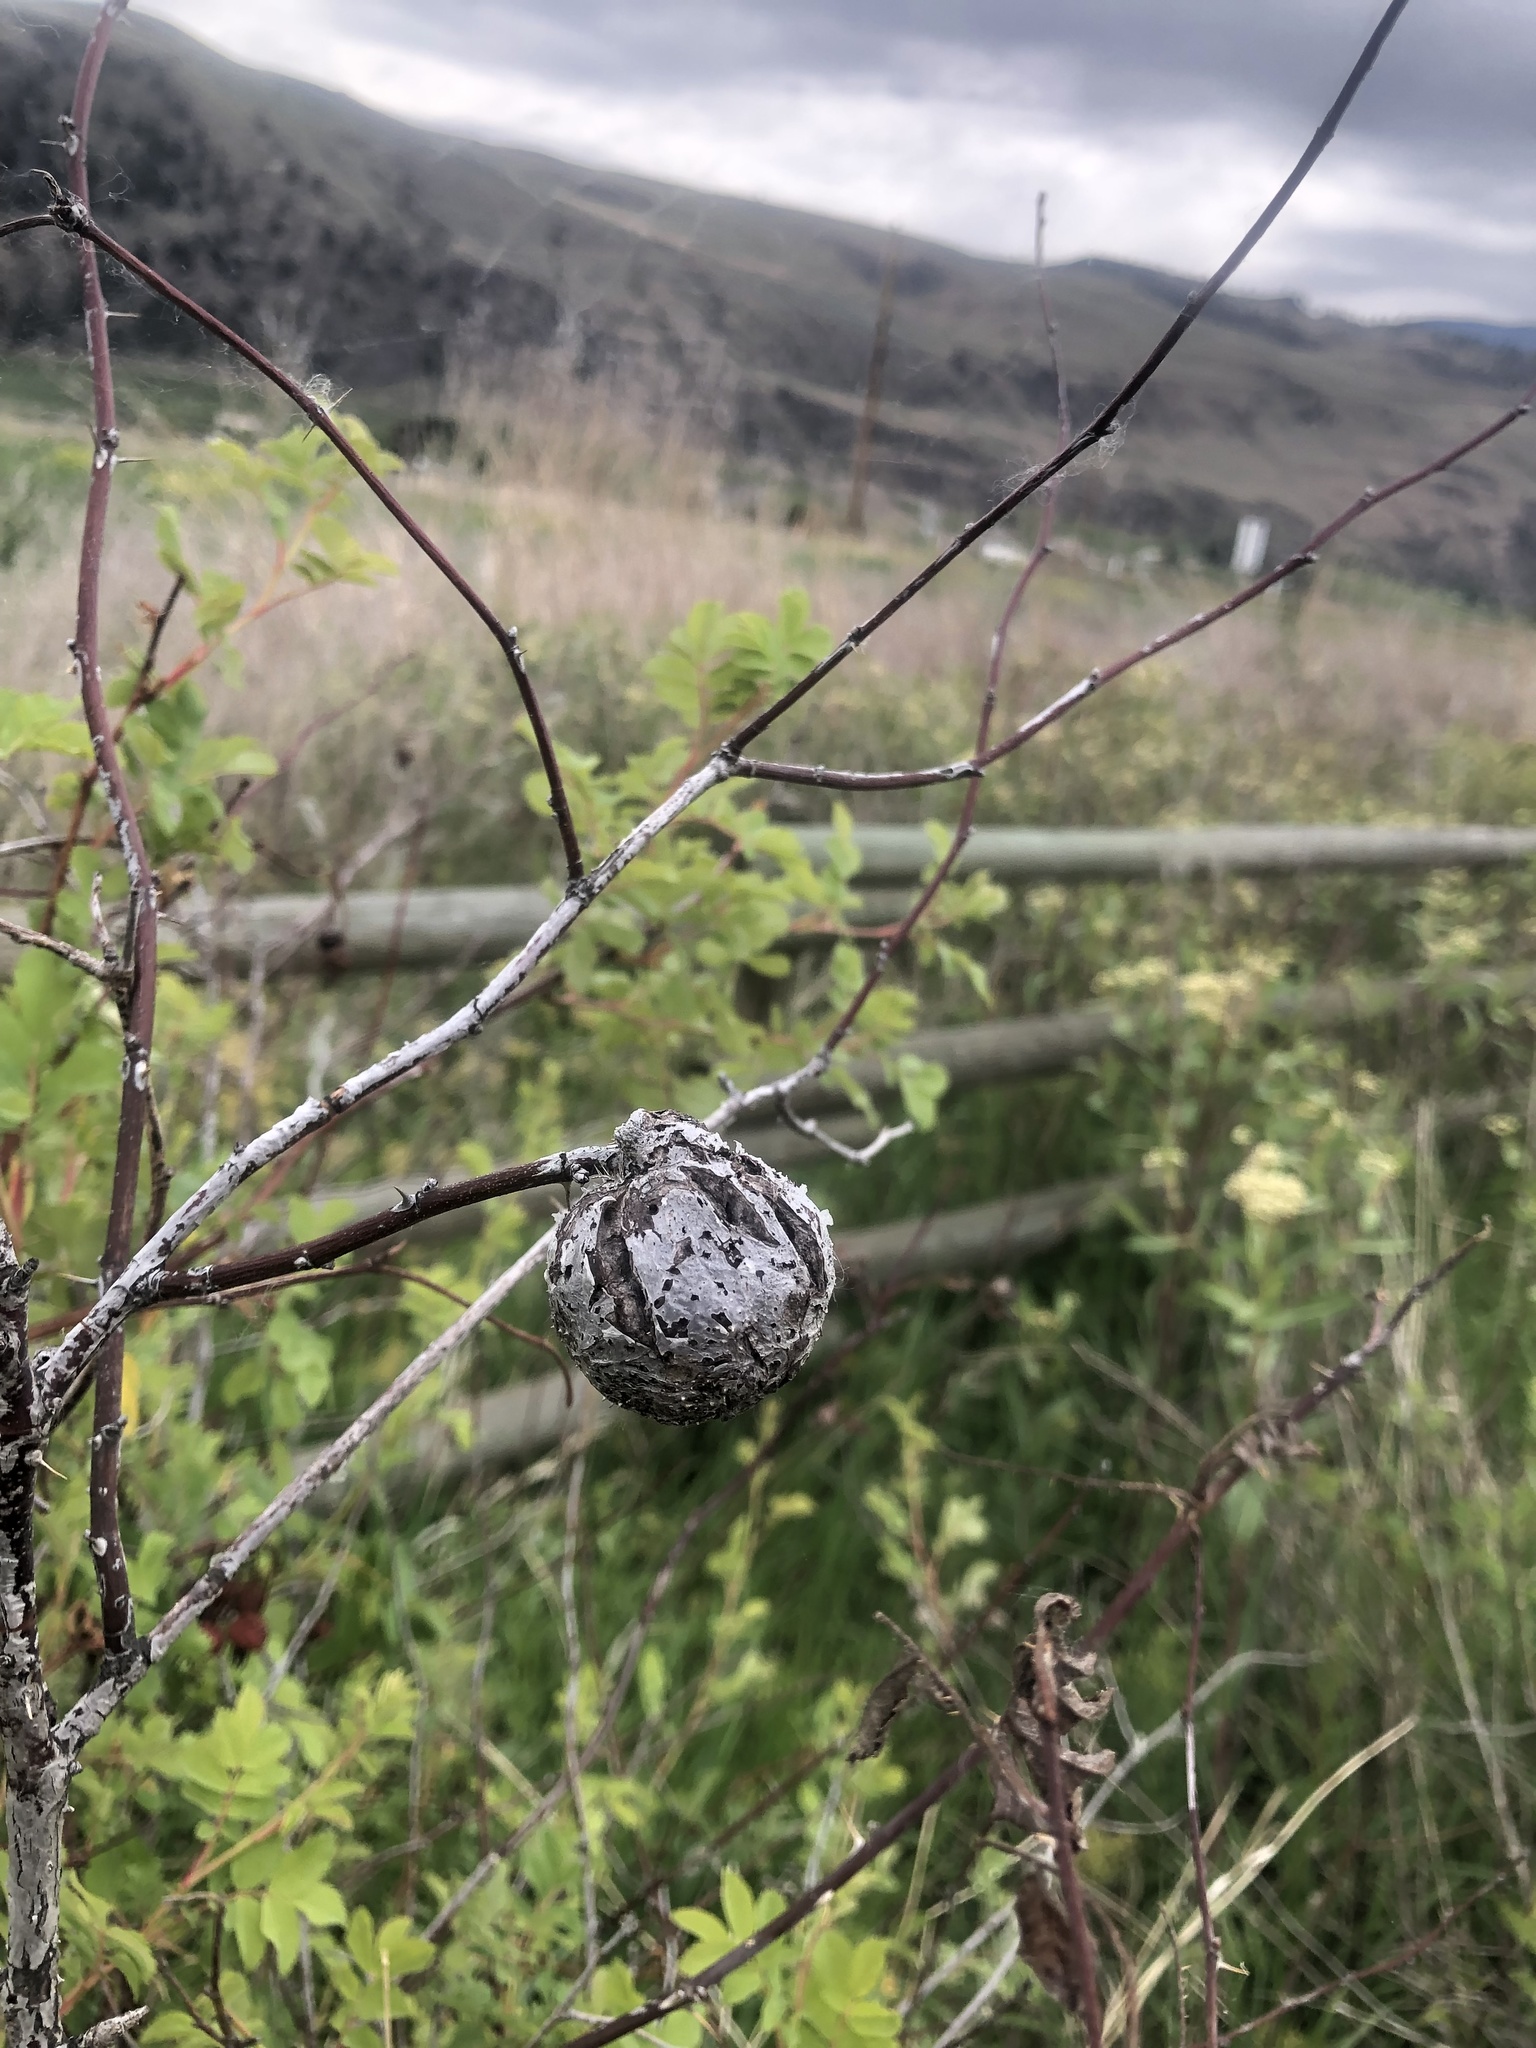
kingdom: Animalia
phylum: Arthropoda
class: Insecta
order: Hymenoptera
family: Cynipidae
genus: Diplolepis
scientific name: Diplolepis spinosa
